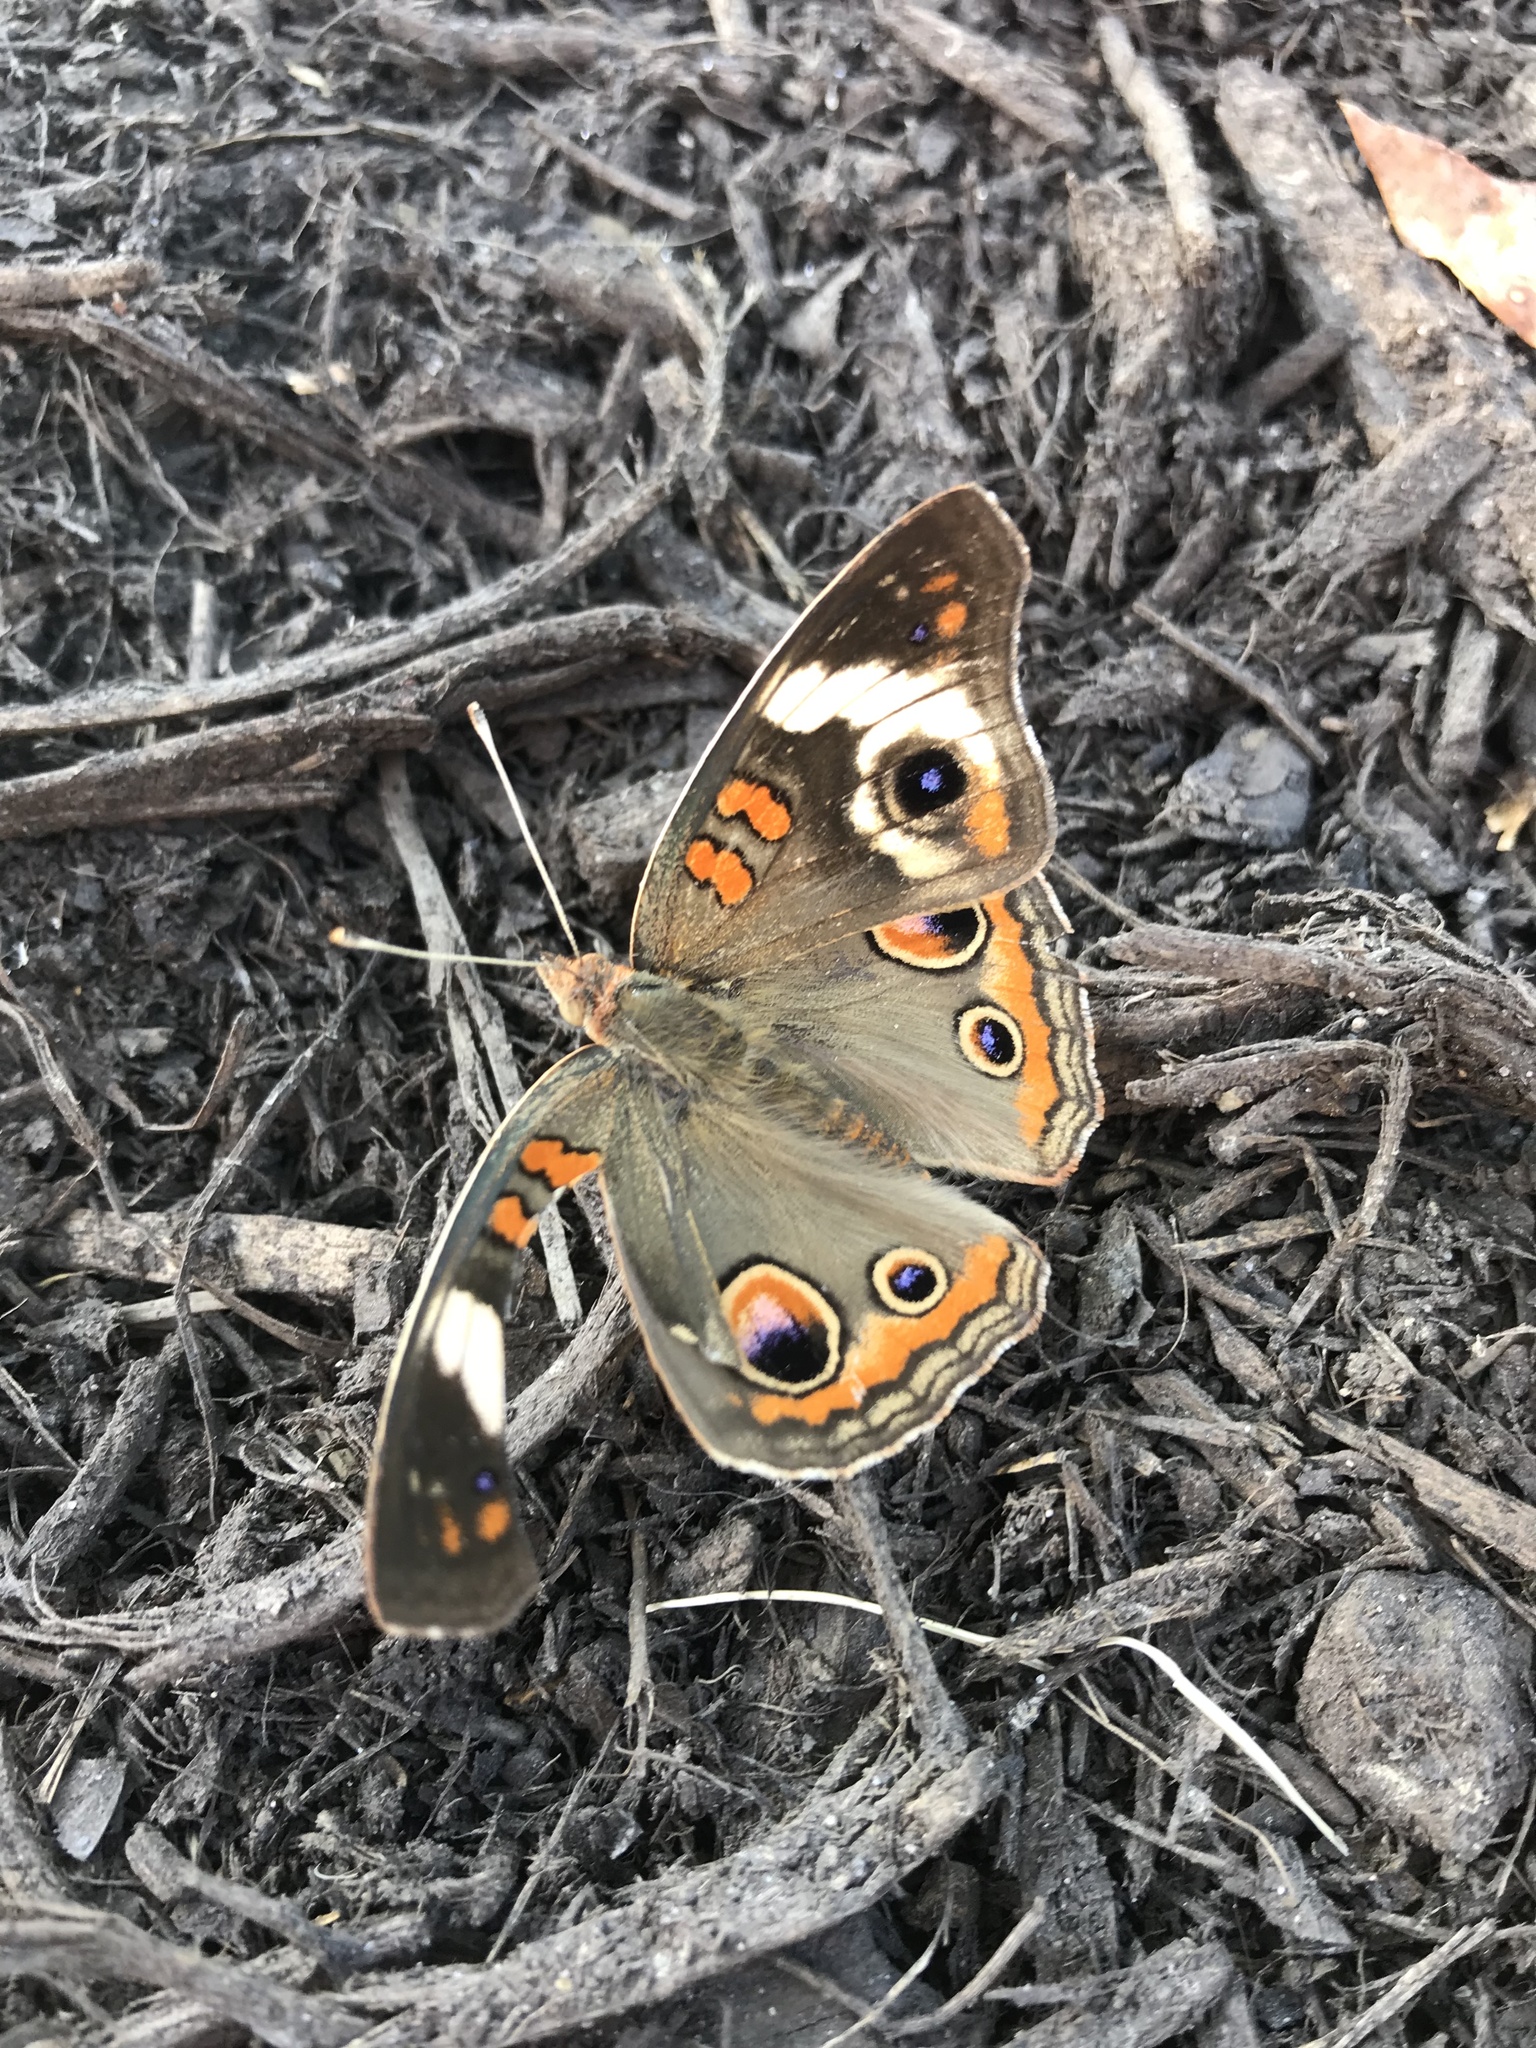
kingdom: Animalia
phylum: Arthropoda
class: Insecta
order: Lepidoptera
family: Nymphalidae
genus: Junonia
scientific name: Junonia coenia
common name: Common buckeye
